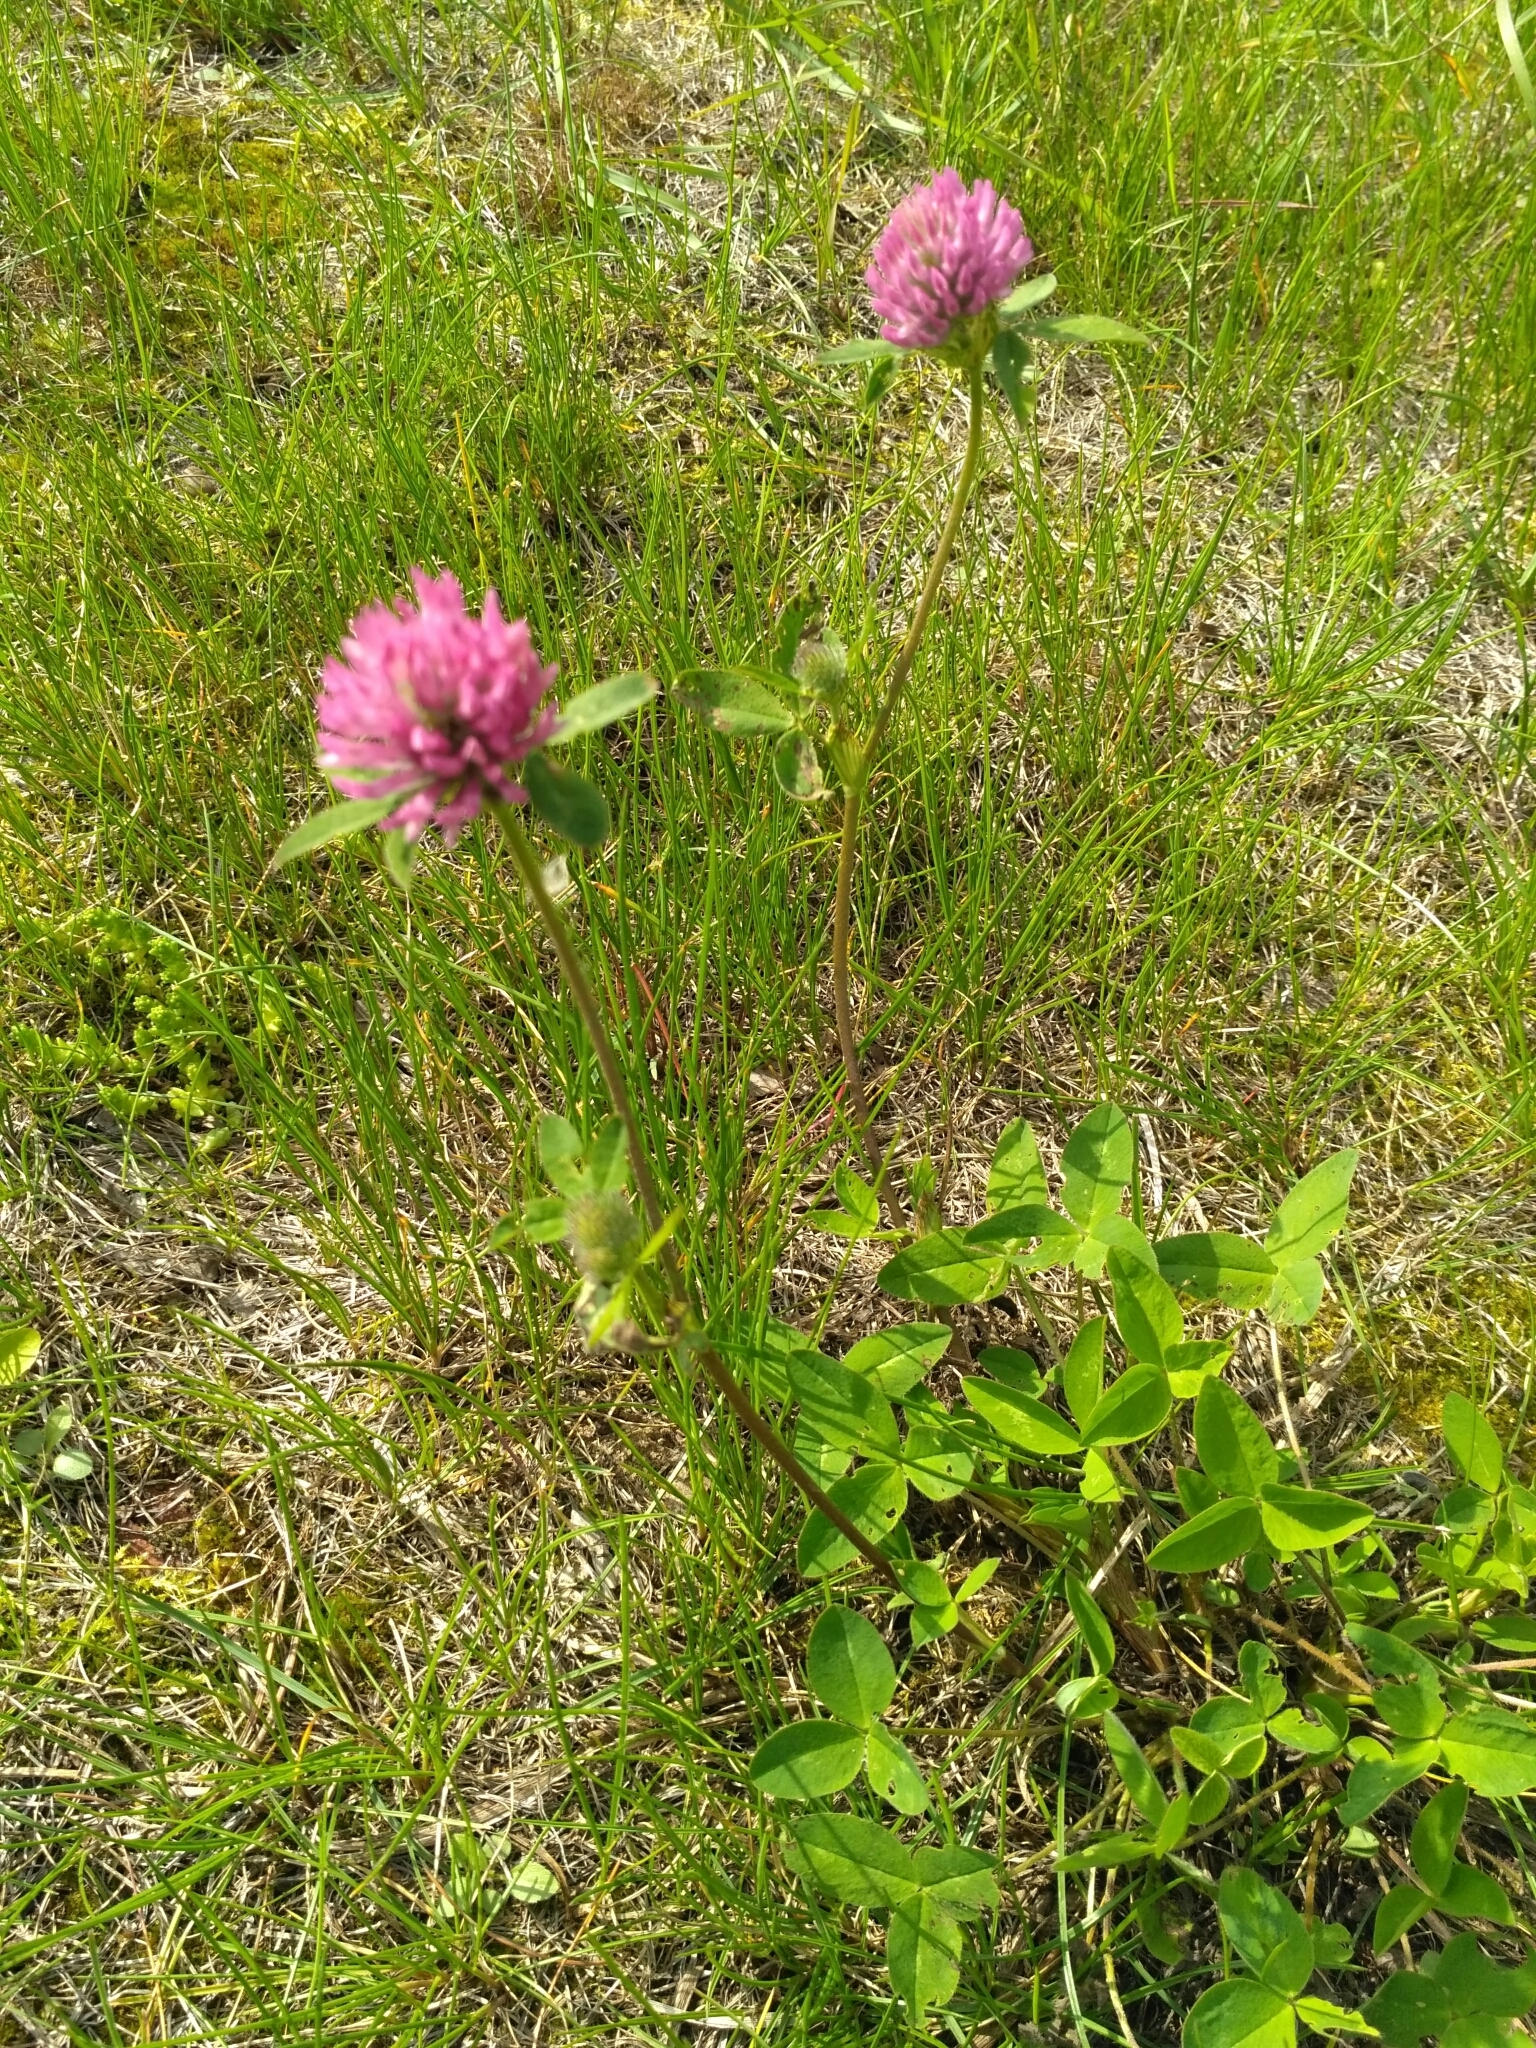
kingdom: Plantae
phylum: Tracheophyta
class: Magnoliopsida
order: Fabales
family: Fabaceae
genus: Trifolium
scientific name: Trifolium pratense
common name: Red clover
